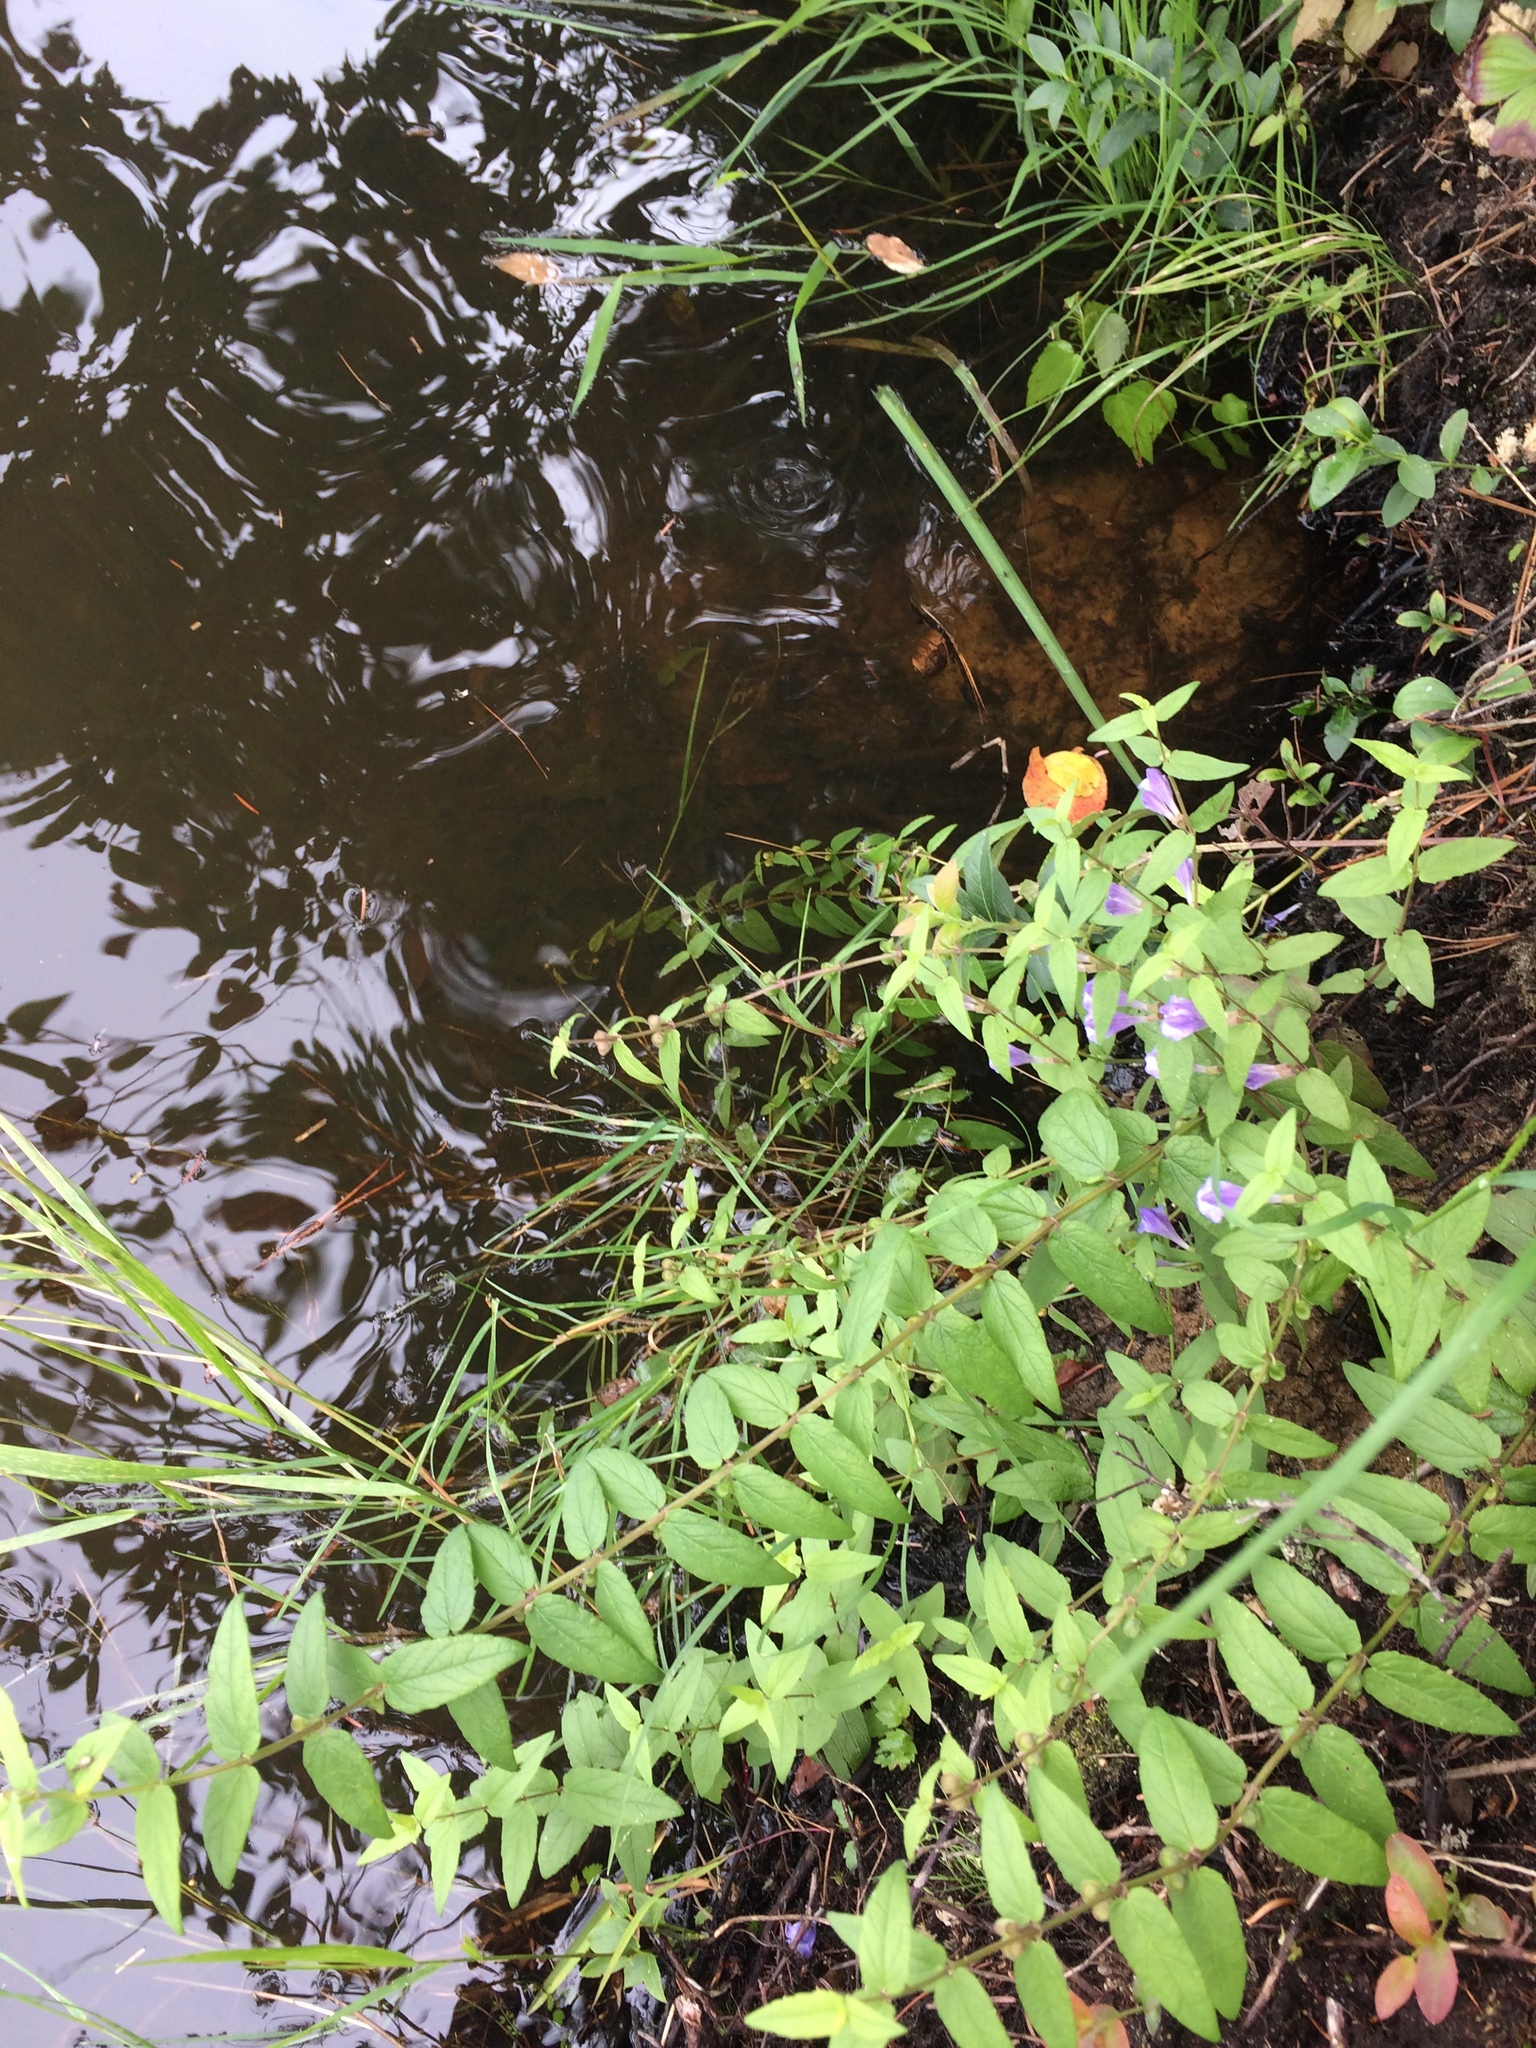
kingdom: Plantae
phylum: Tracheophyta
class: Magnoliopsida
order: Lamiales
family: Lamiaceae
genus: Scutellaria
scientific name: Scutellaria galericulata
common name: Skullcap
